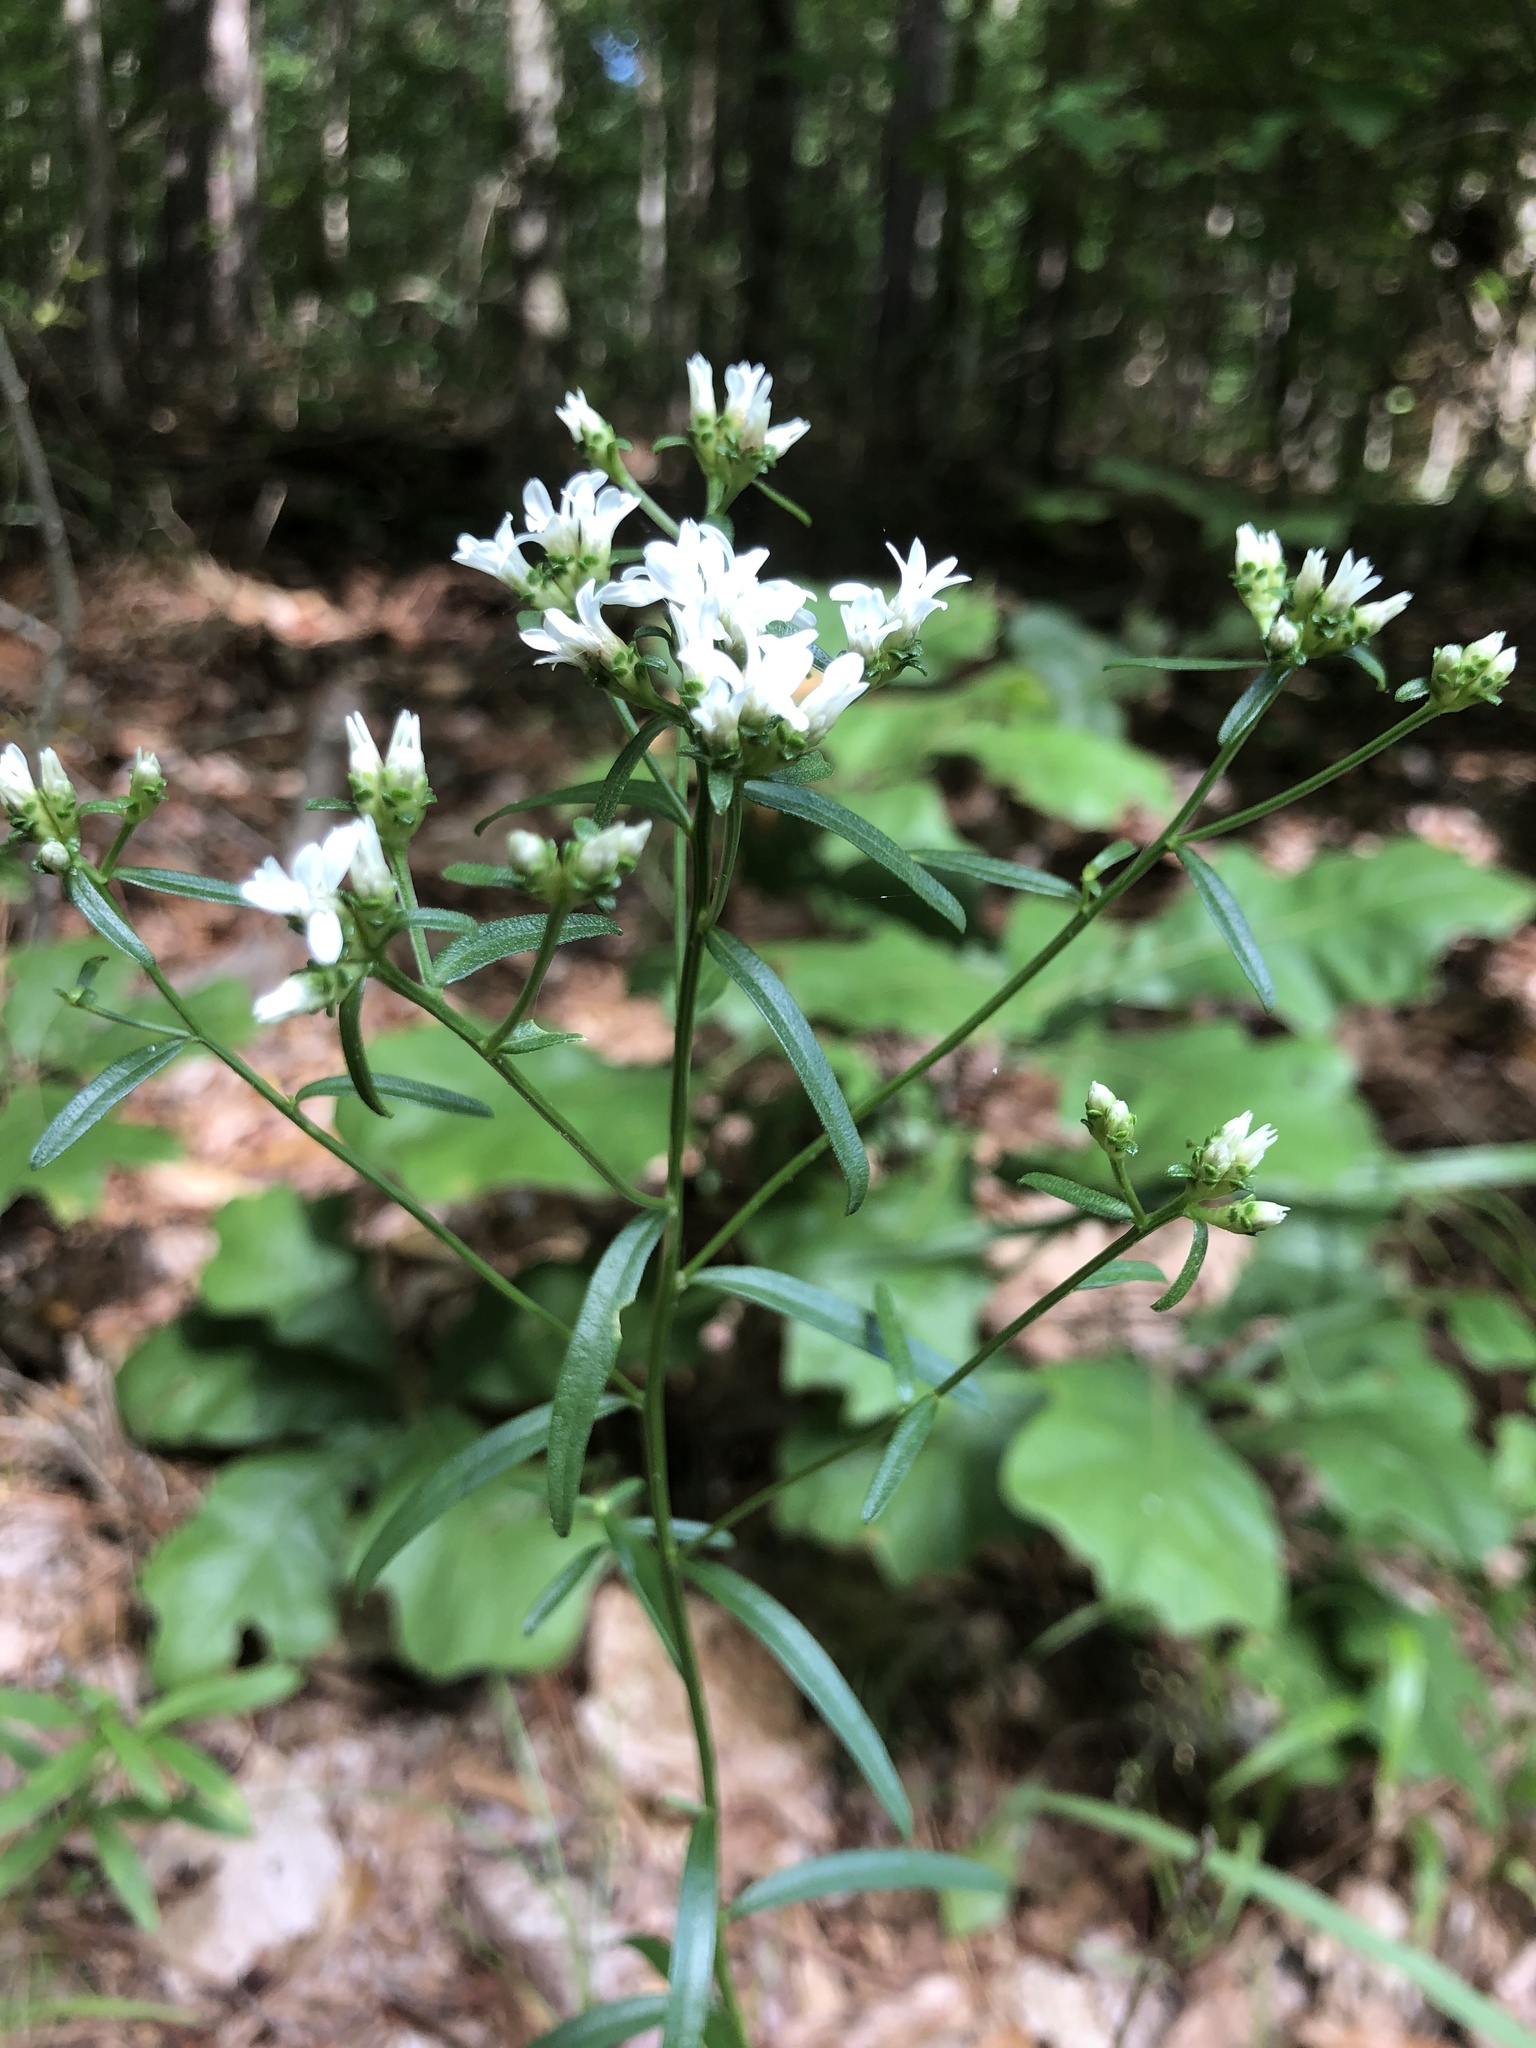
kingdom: Plantae
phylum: Tracheophyta
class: Magnoliopsida
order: Asterales
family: Asteraceae
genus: Sericocarpus
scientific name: Sericocarpus linifolius
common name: Narrow-leaf aster
